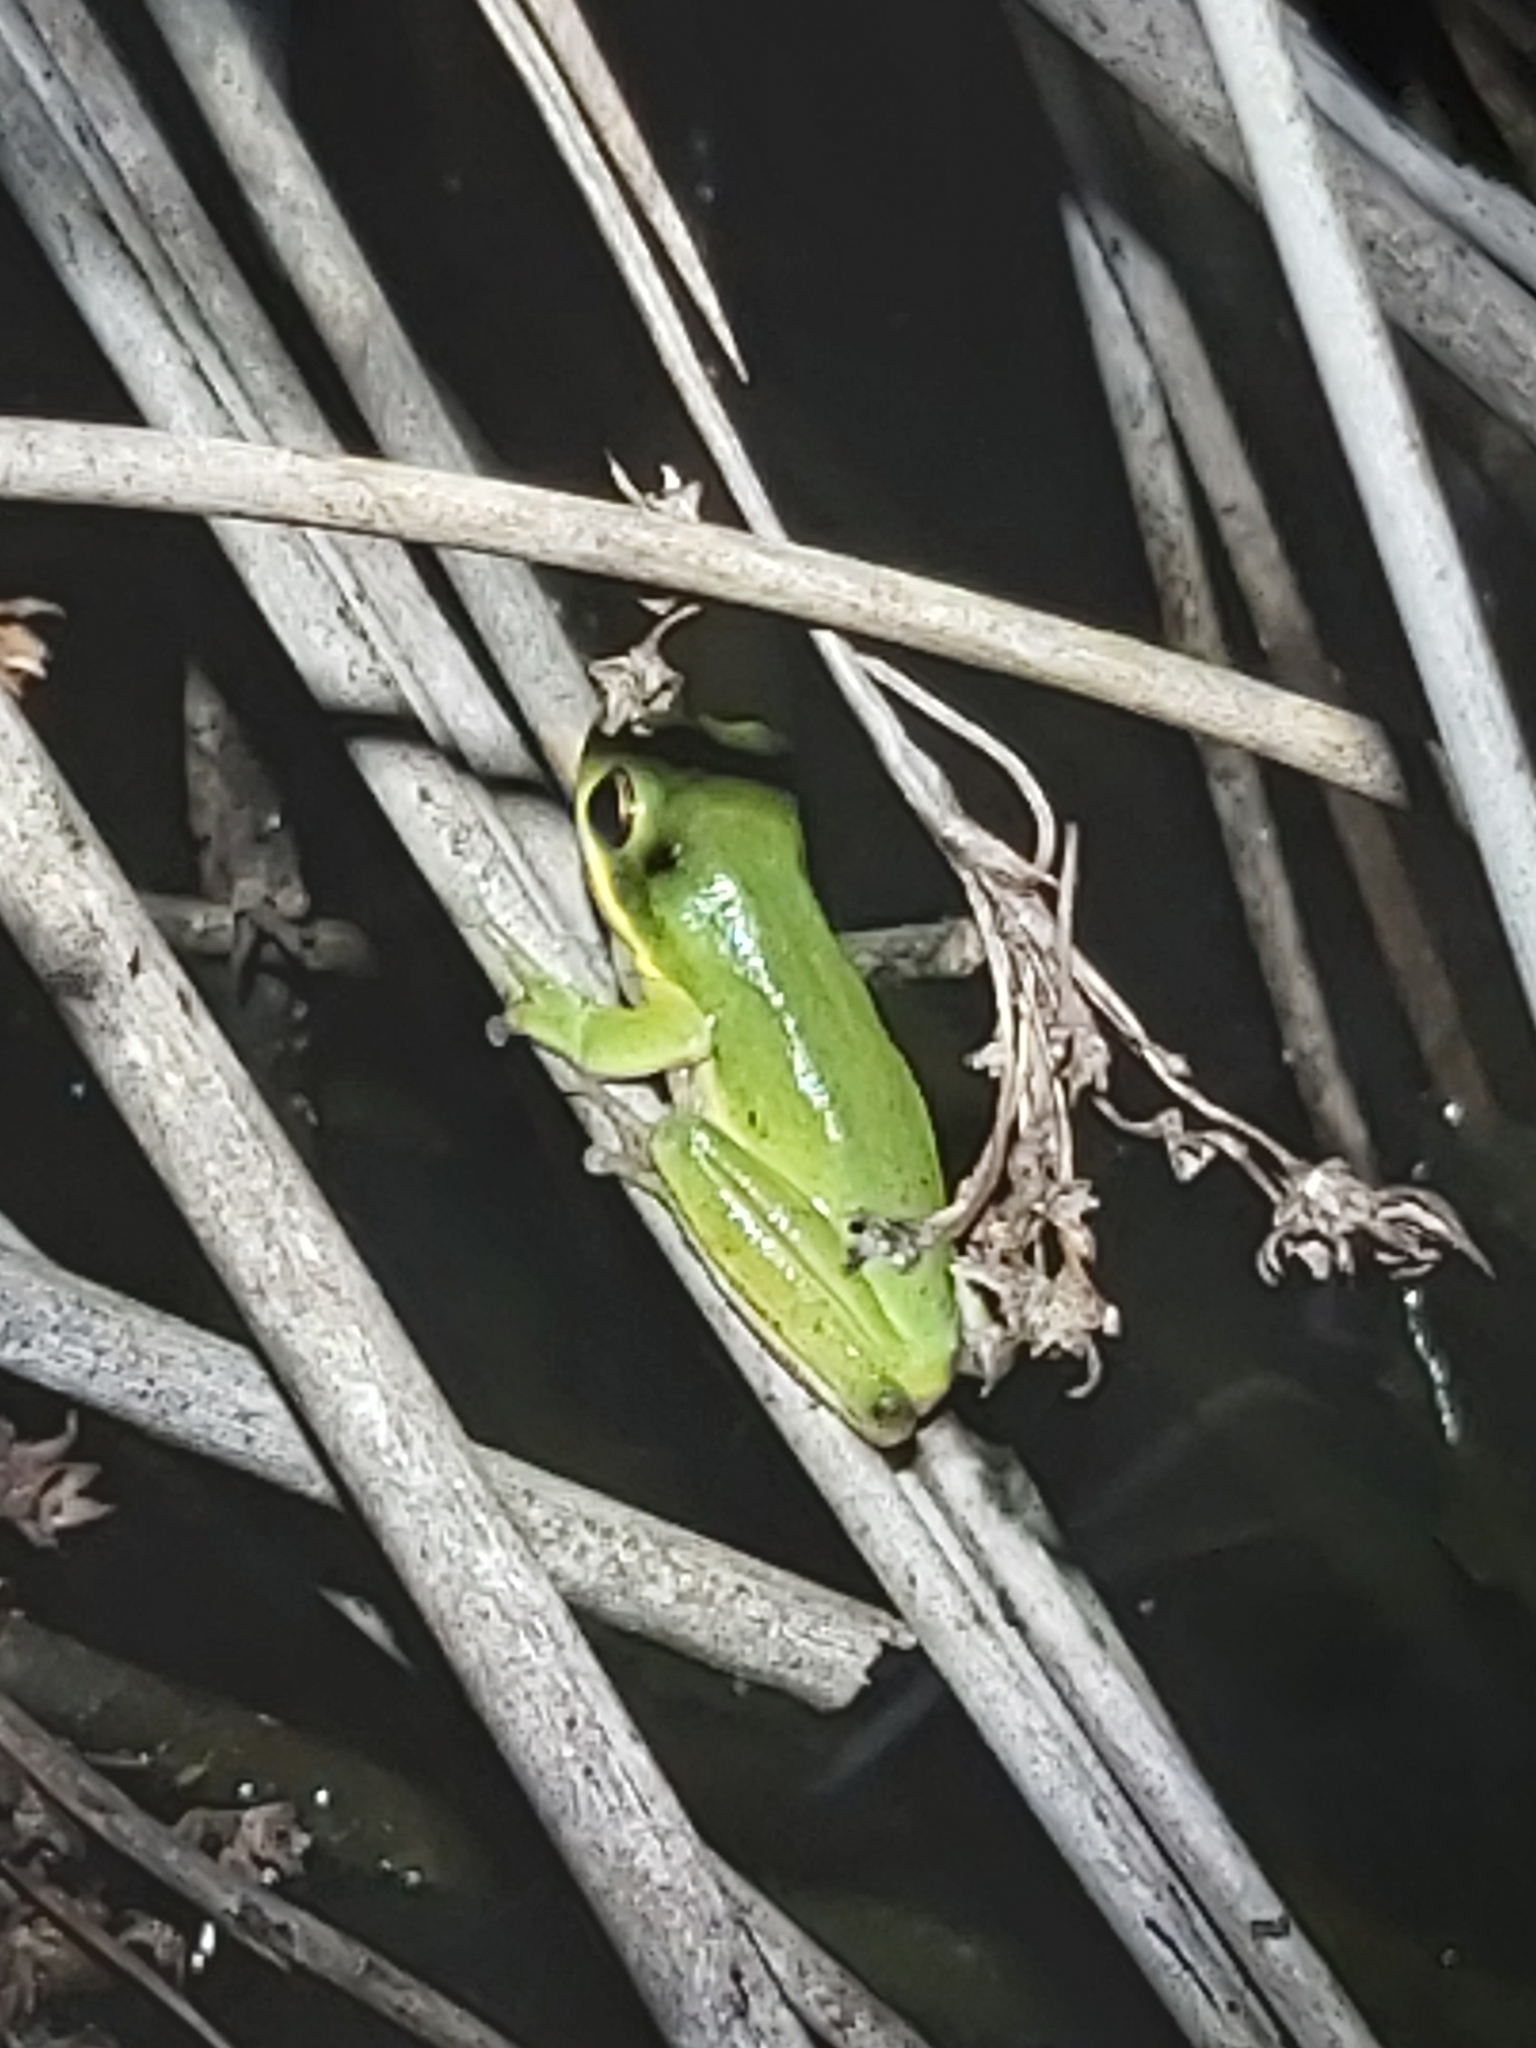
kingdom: Animalia
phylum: Chordata
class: Amphibia
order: Anura
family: Pelodryadidae
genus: Litoria
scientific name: Litoria fallax
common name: Eastern dwarf treefrog
